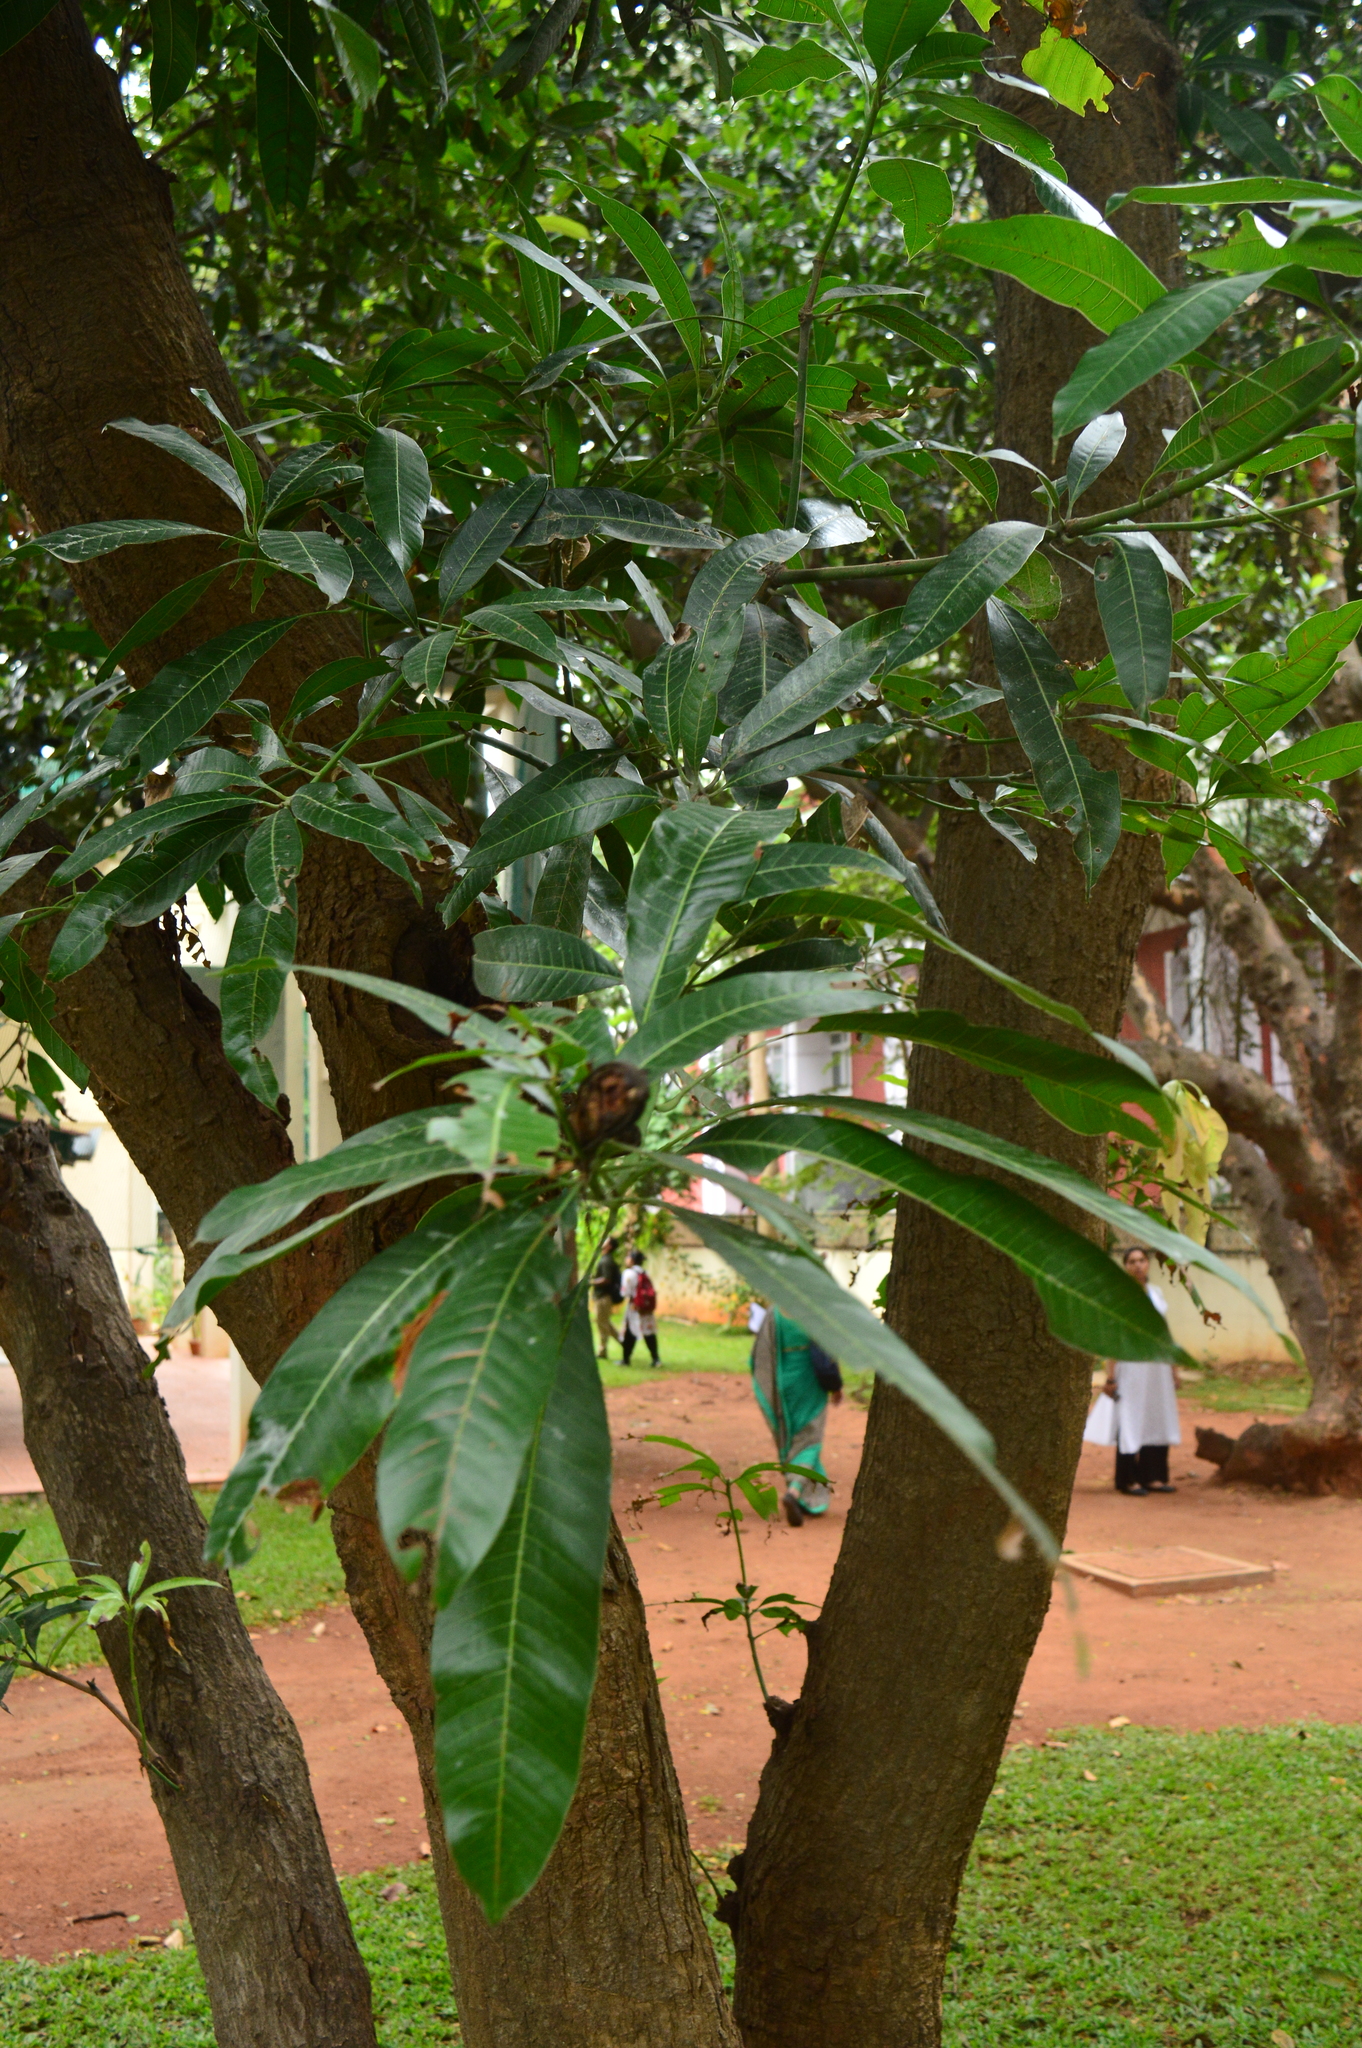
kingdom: Plantae
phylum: Tracheophyta
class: Magnoliopsida
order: Sapindales
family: Anacardiaceae
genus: Mangifera
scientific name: Mangifera indica
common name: Mango
